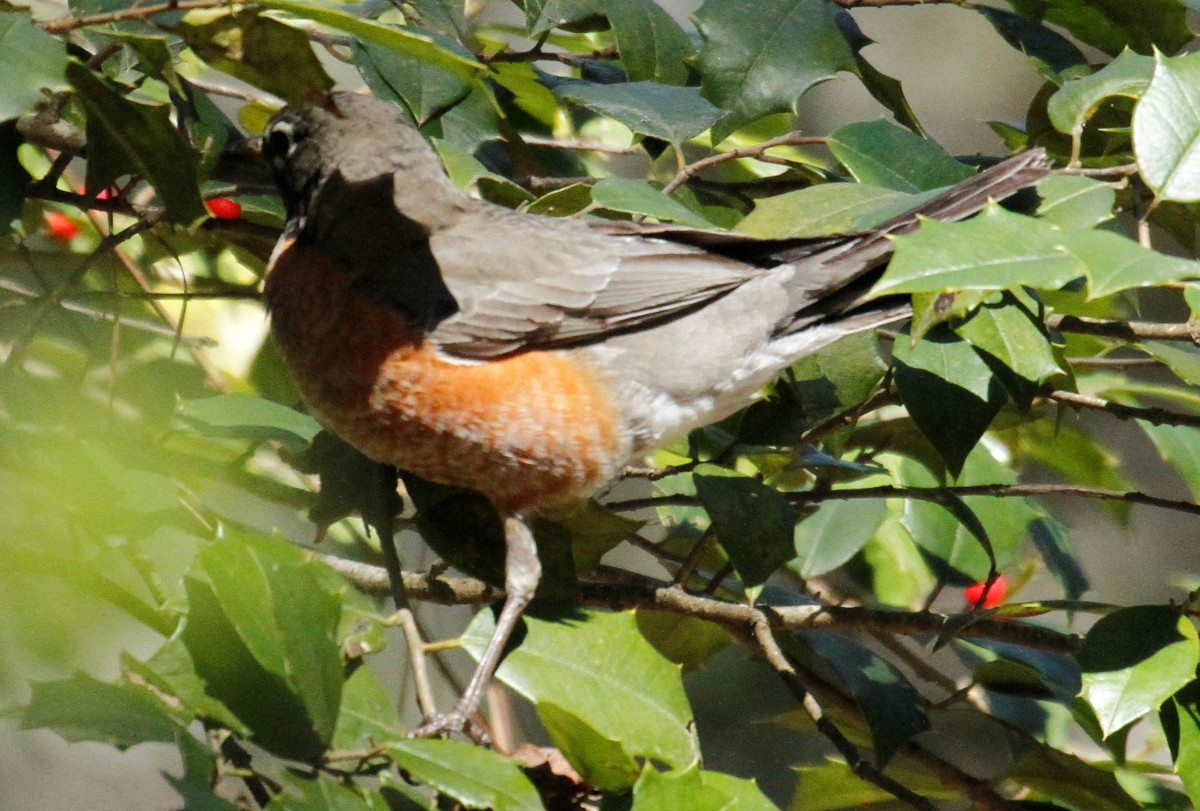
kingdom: Animalia
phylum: Chordata
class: Aves
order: Passeriformes
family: Turdidae
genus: Turdus
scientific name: Turdus migratorius
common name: American robin
